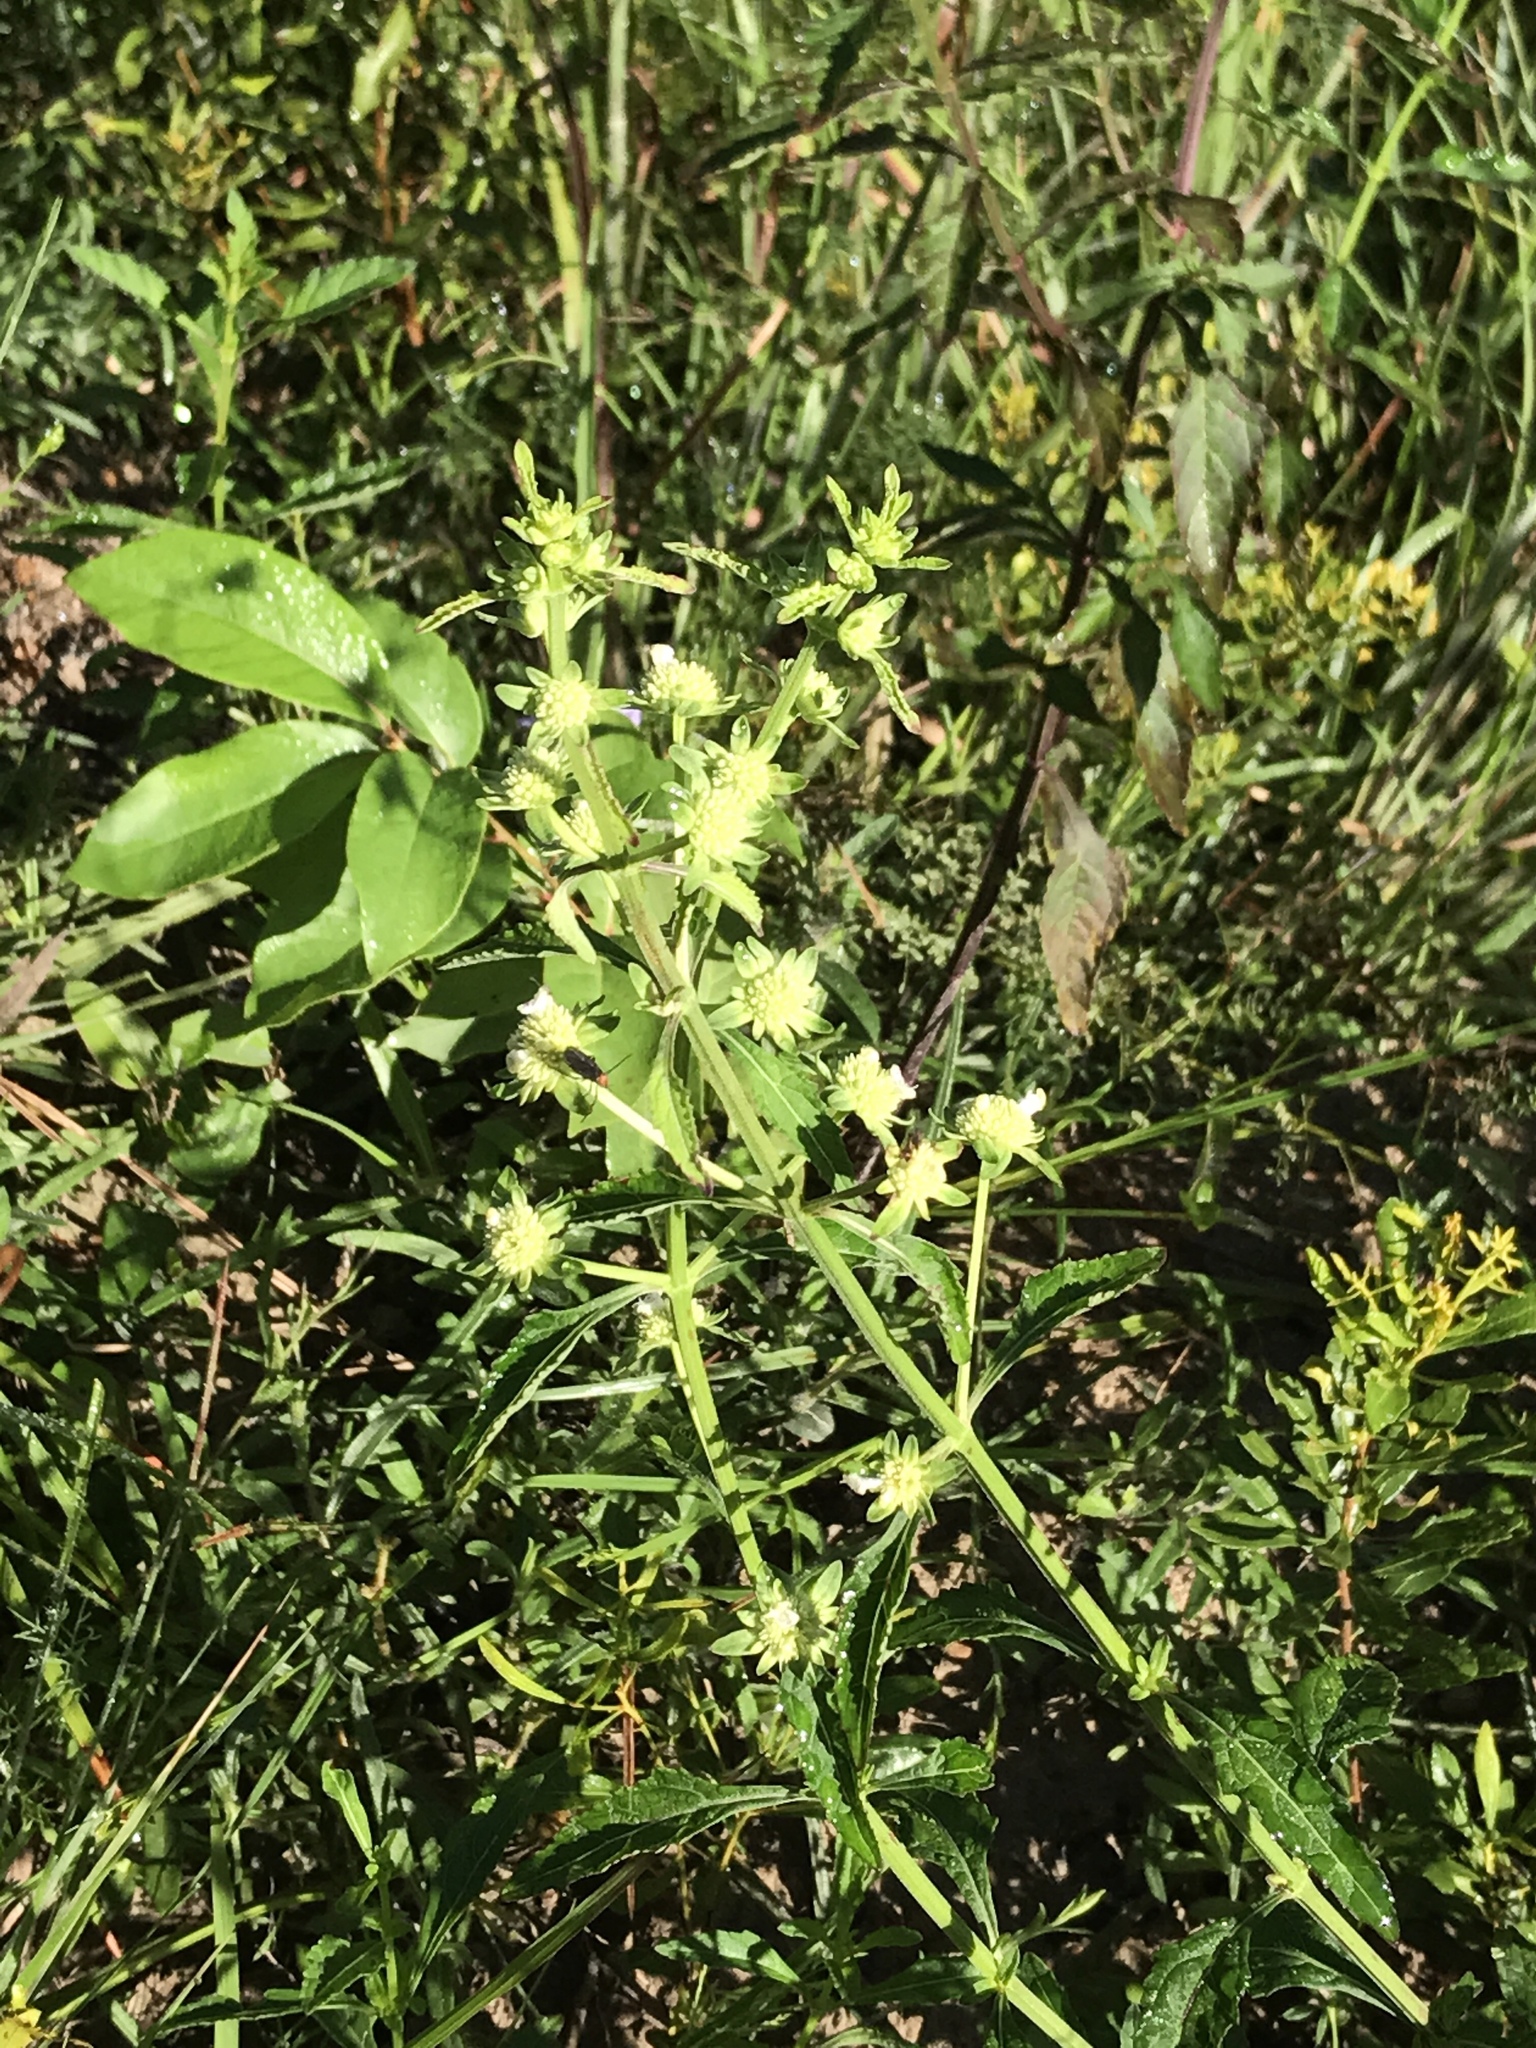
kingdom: Plantae
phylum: Tracheophyta
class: Magnoliopsida
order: Lamiales
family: Lamiaceae
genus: Hyptis
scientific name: Hyptis alata
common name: Cluster bush-mint
